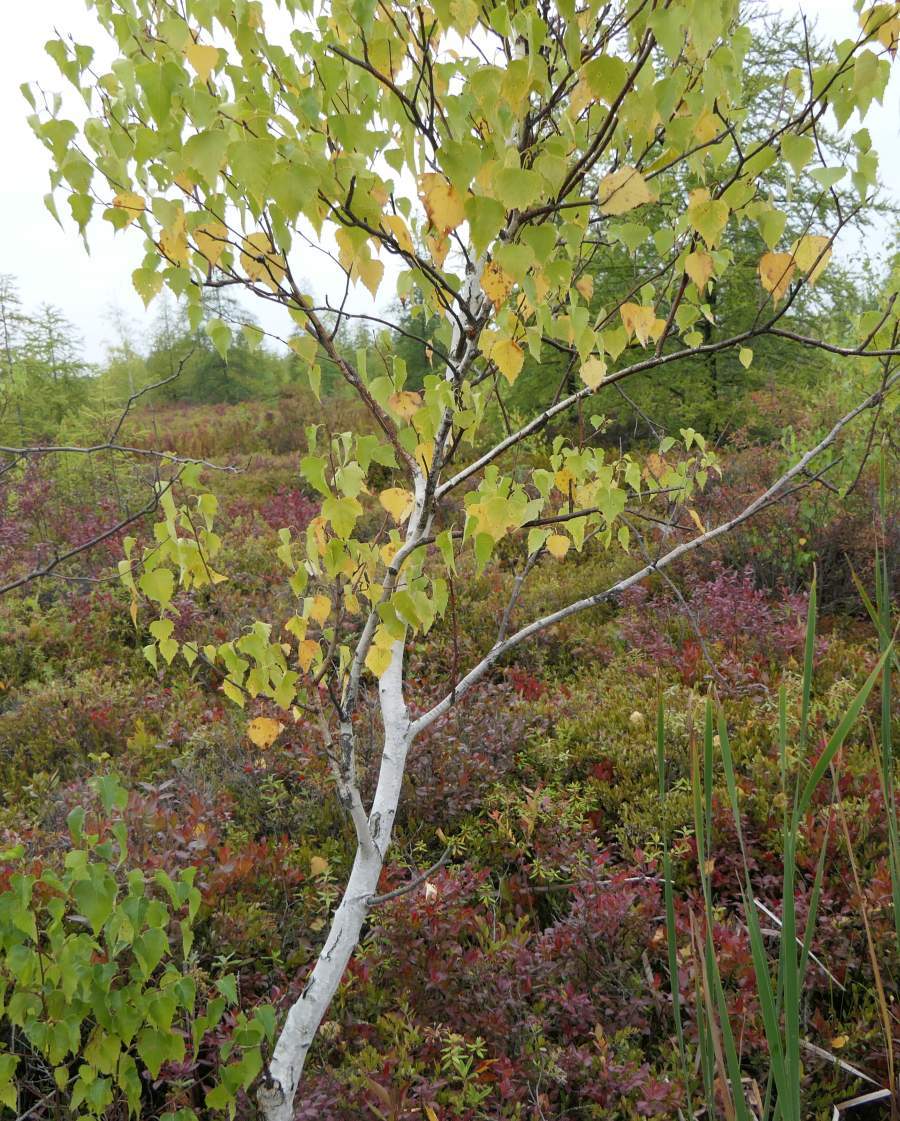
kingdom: Plantae
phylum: Tracheophyta
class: Magnoliopsida
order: Fagales
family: Betulaceae
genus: Betula
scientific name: Betula populifolia
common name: Fire birch
